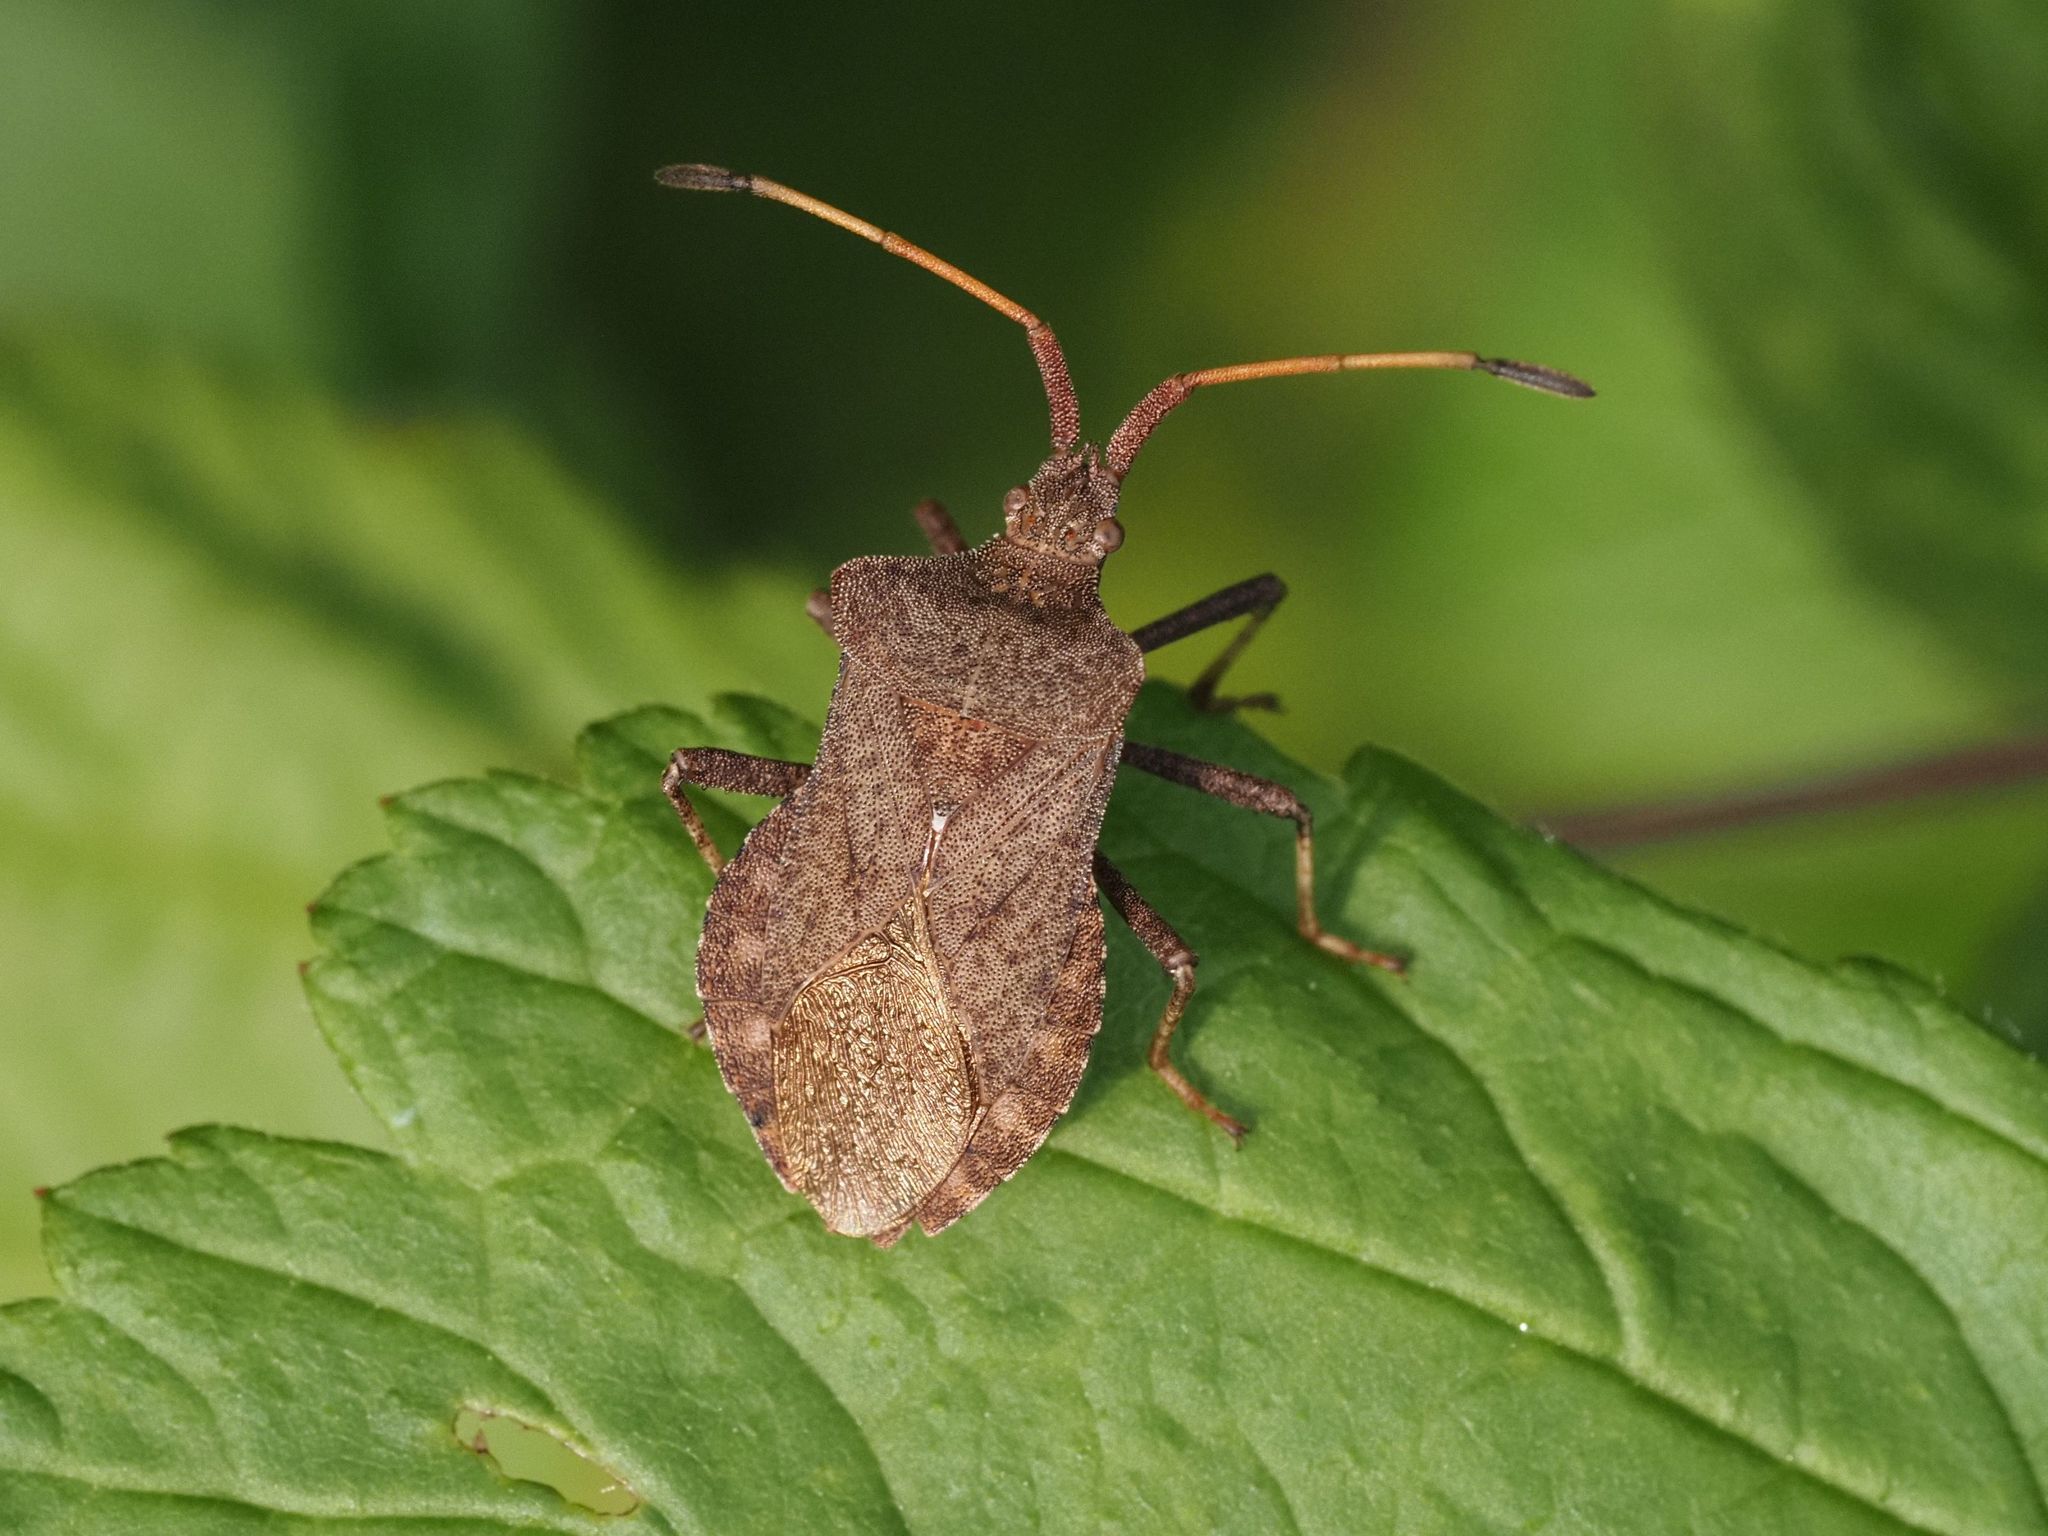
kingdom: Animalia
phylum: Arthropoda
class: Insecta
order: Hemiptera
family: Coreidae
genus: Coreus
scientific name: Coreus marginatus
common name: Dock bug
